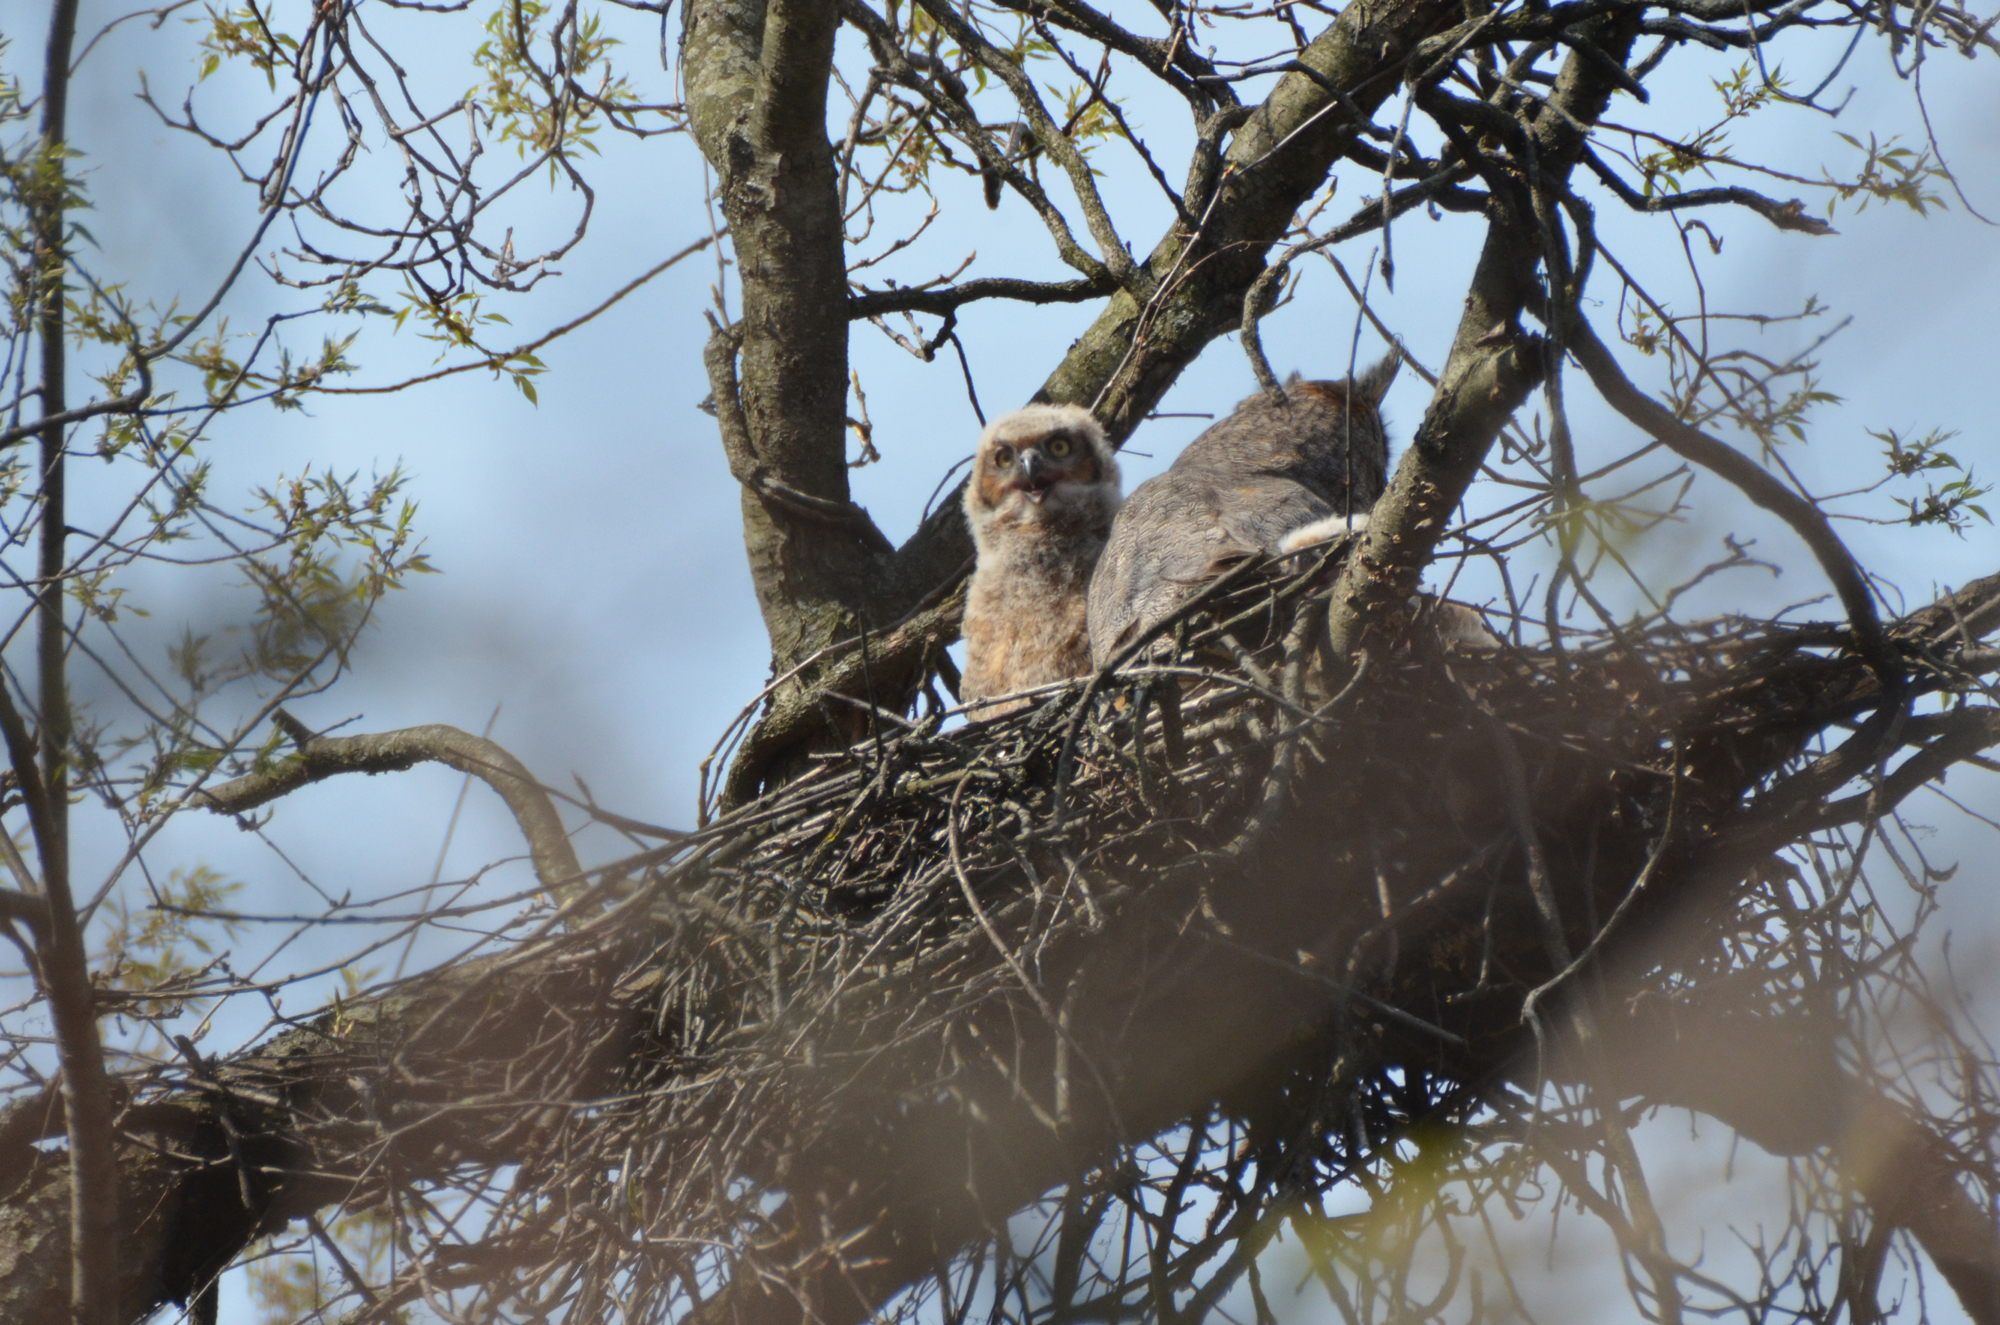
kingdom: Animalia
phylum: Chordata
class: Aves
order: Strigiformes
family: Strigidae
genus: Bubo
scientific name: Bubo virginianus
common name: Great horned owl
